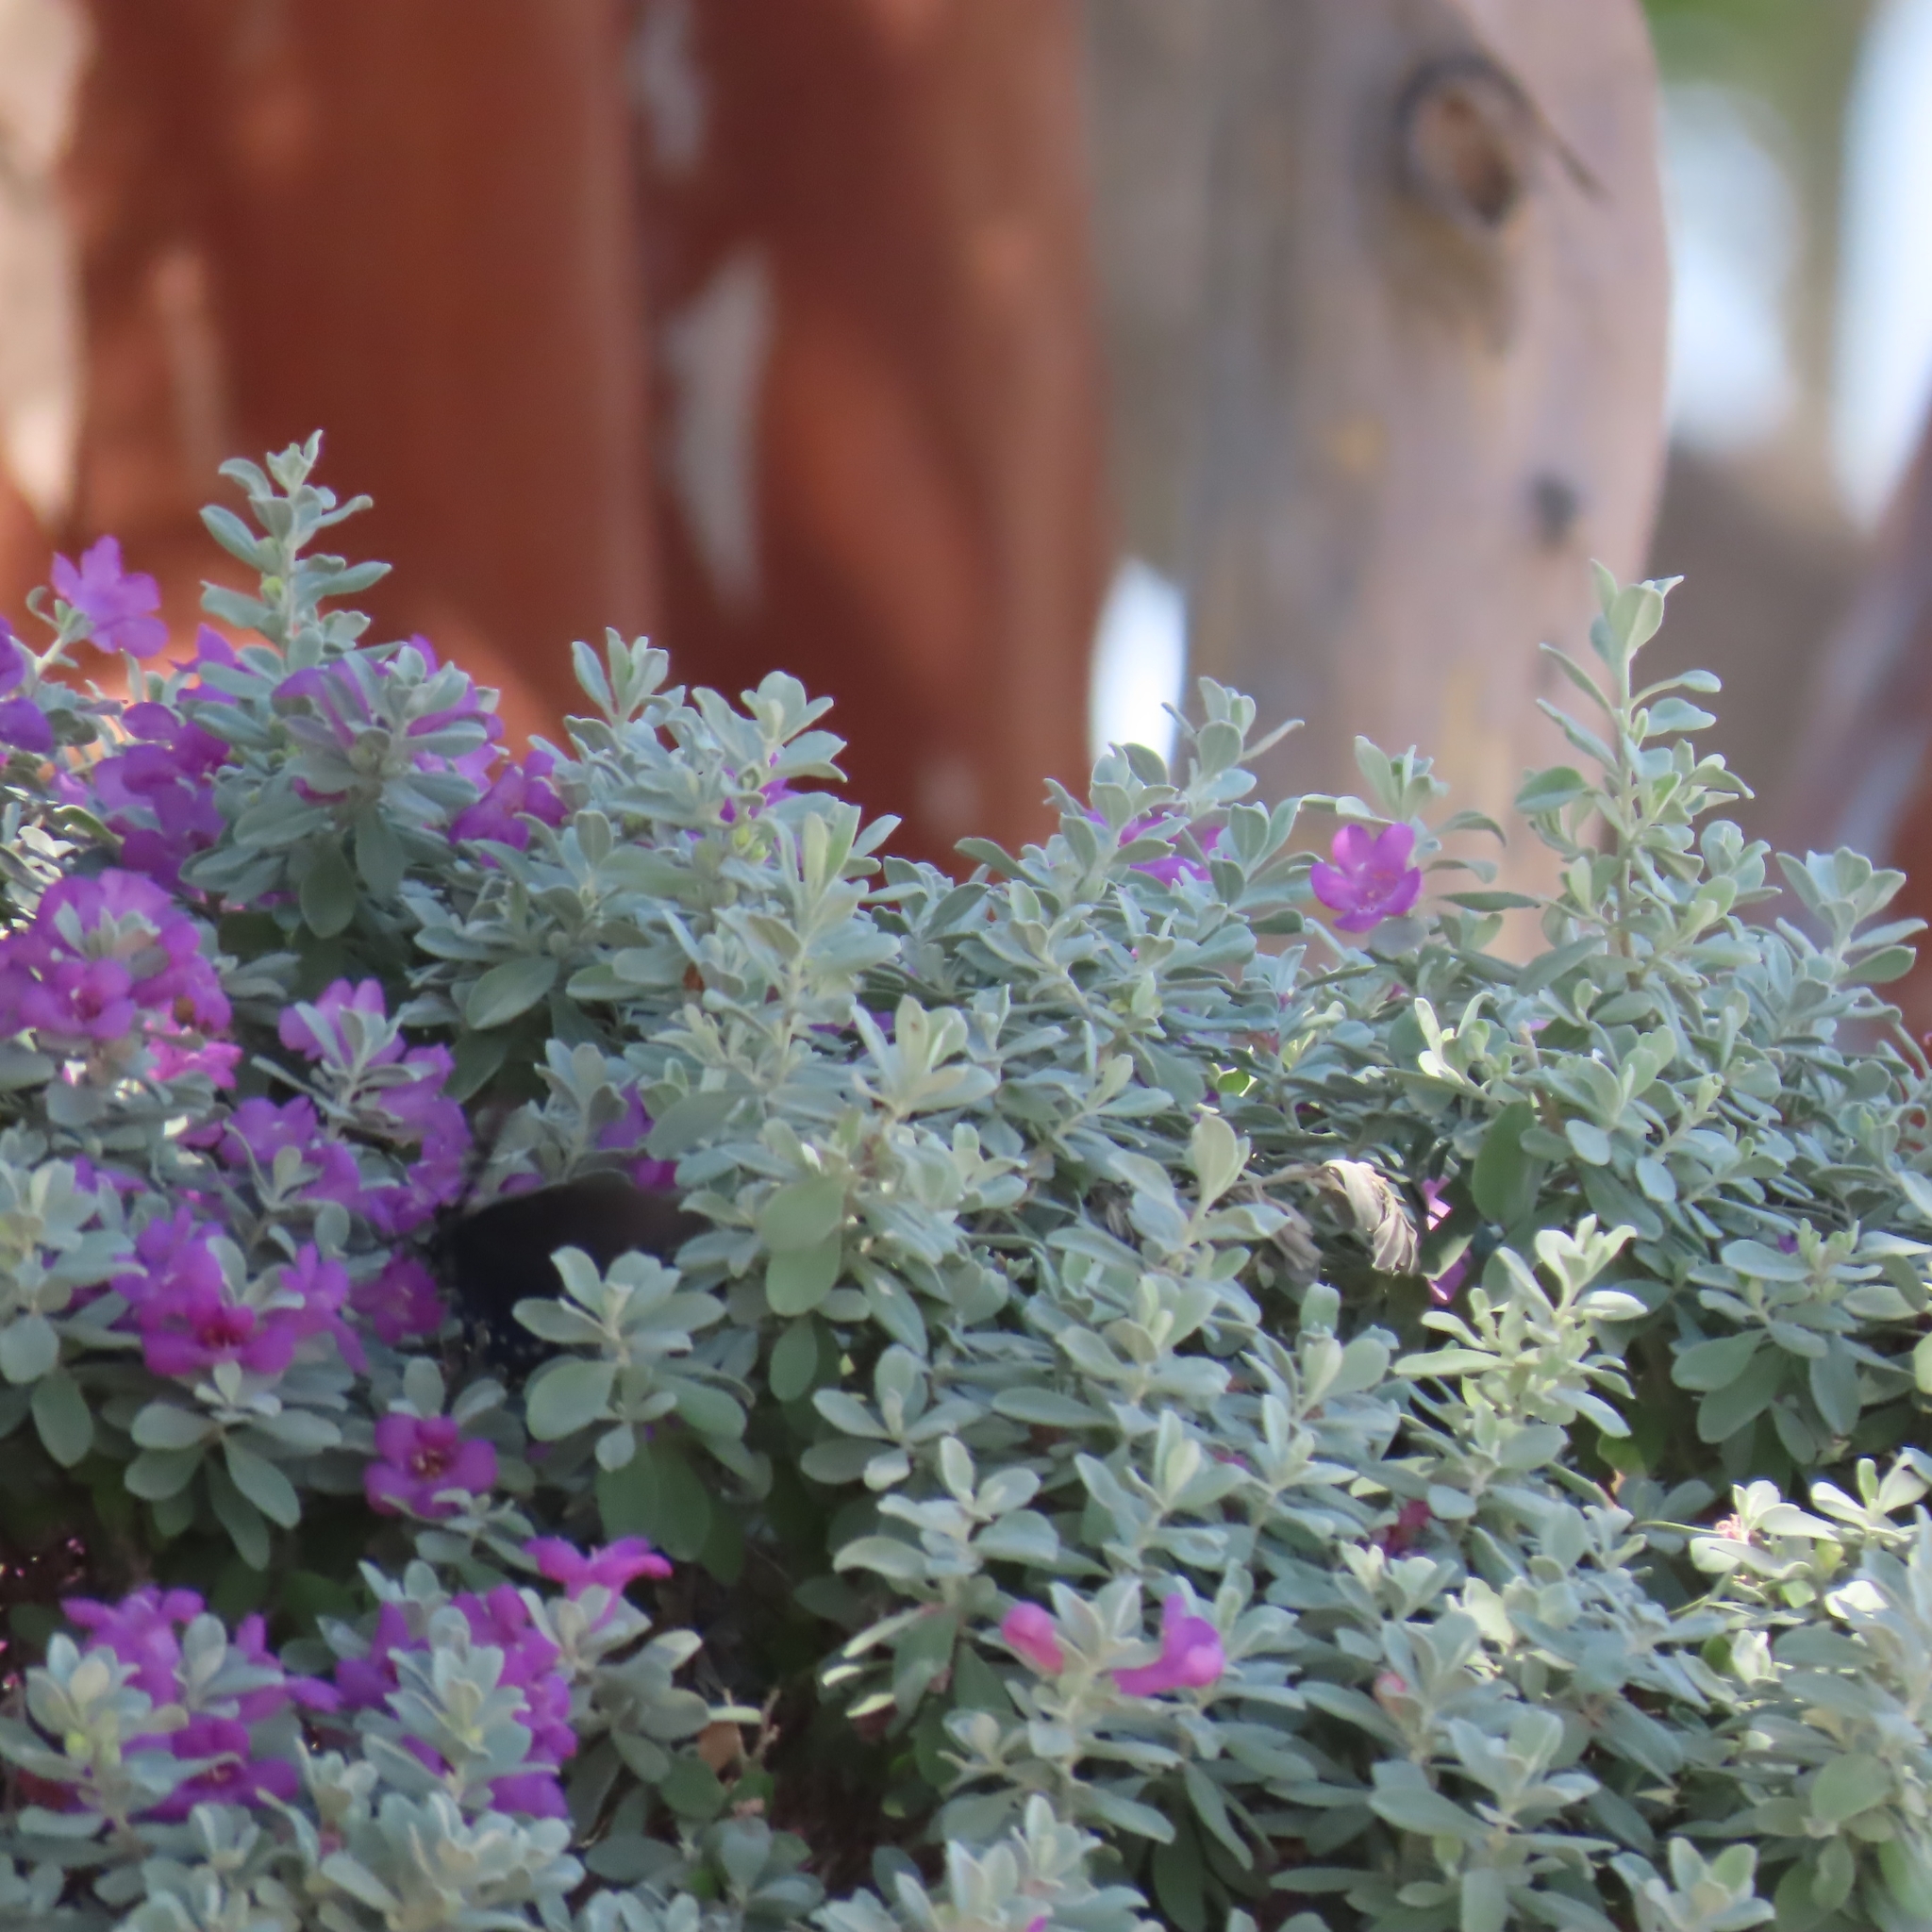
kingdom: Plantae
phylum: Tracheophyta
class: Magnoliopsida
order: Lamiales
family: Scrophulariaceae
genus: Leucophyllum
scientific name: Leucophyllum frutescens
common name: Texas silverleaf
